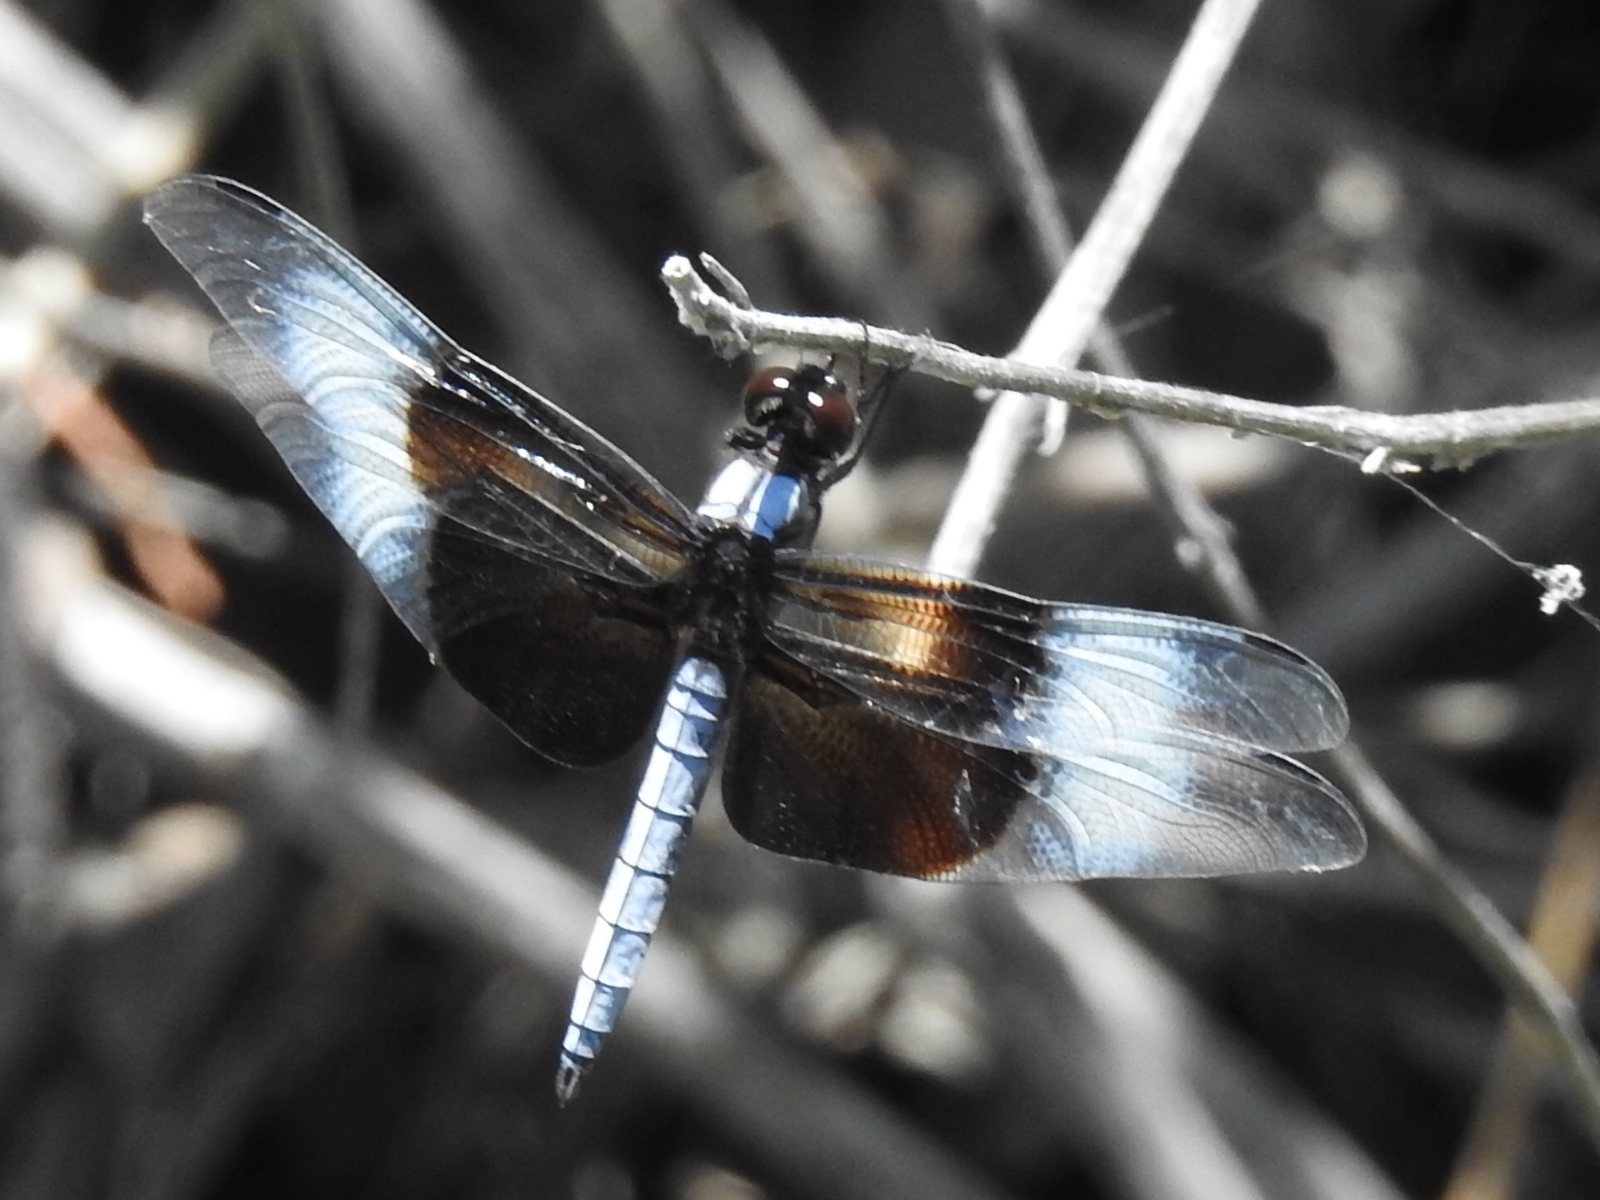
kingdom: Animalia
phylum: Arthropoda
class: Insecta
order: Odonata
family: Libellulidae
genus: Libellula
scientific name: Libellula luctuosa
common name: Widow skimmer
